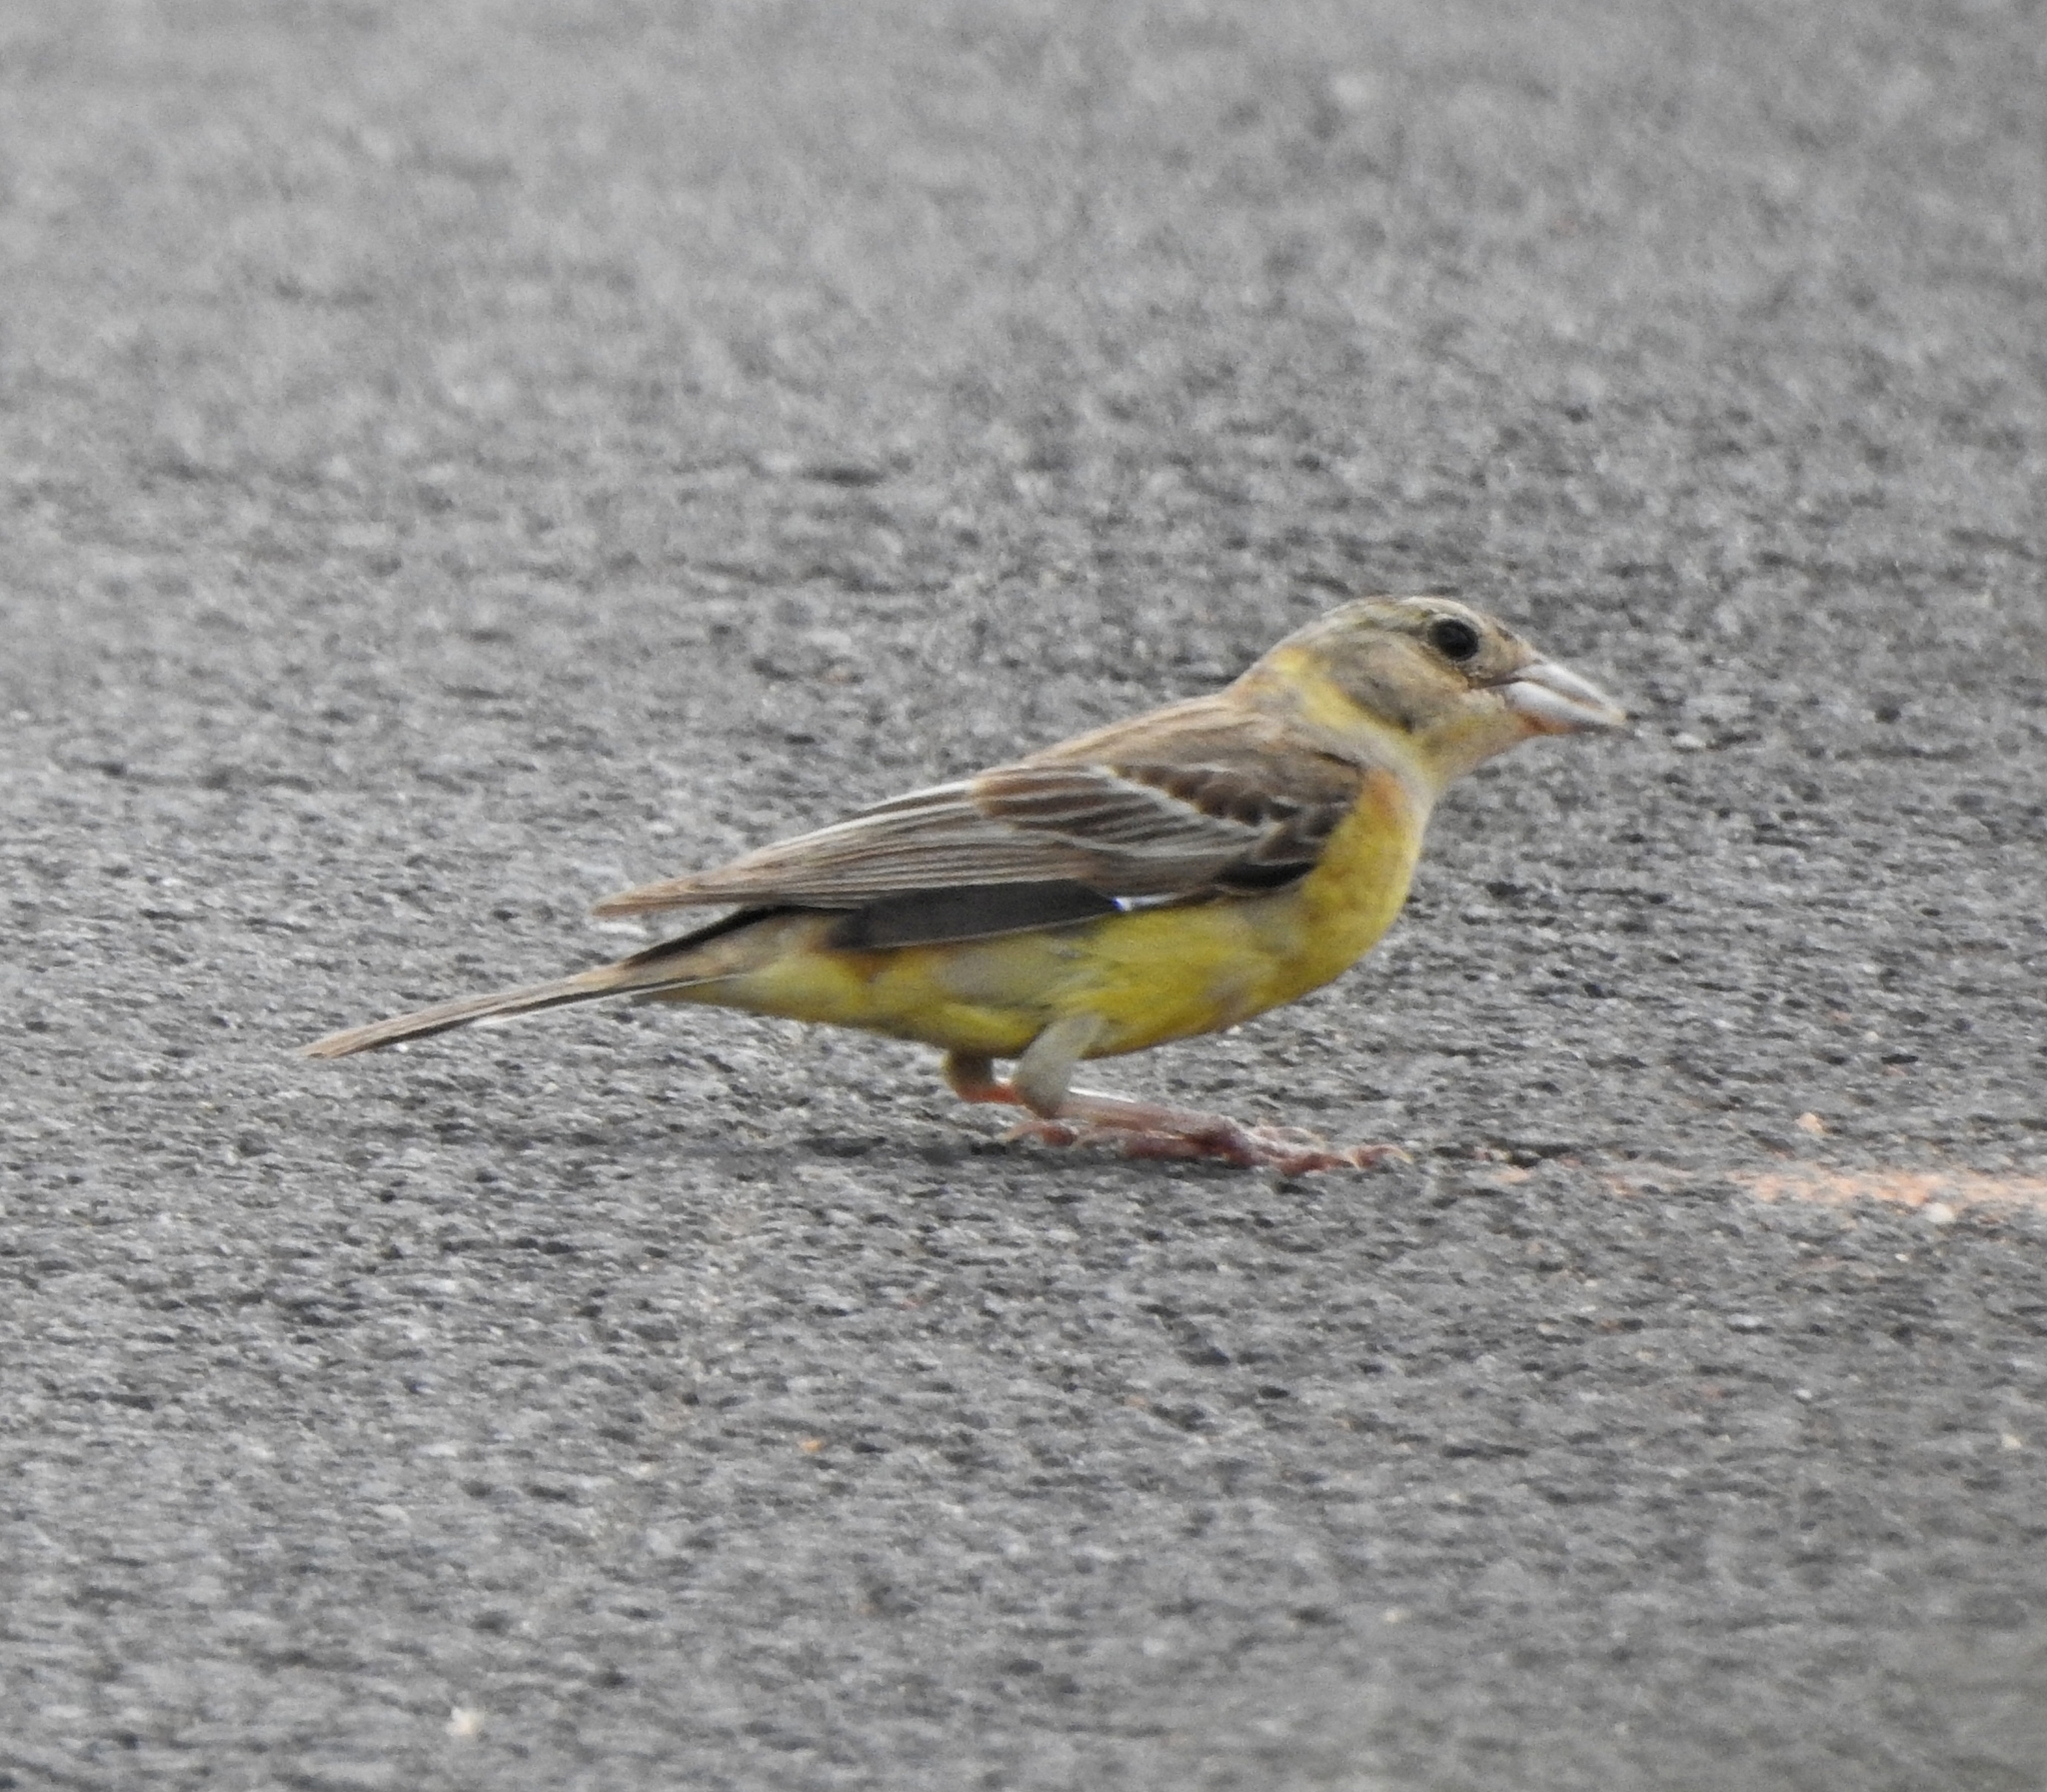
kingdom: Animalia
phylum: Chordata
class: Aves
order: Passeriformes
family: Emberizidae
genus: Emberiza
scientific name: Emberiza melanocephala
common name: Black-headed bunting
